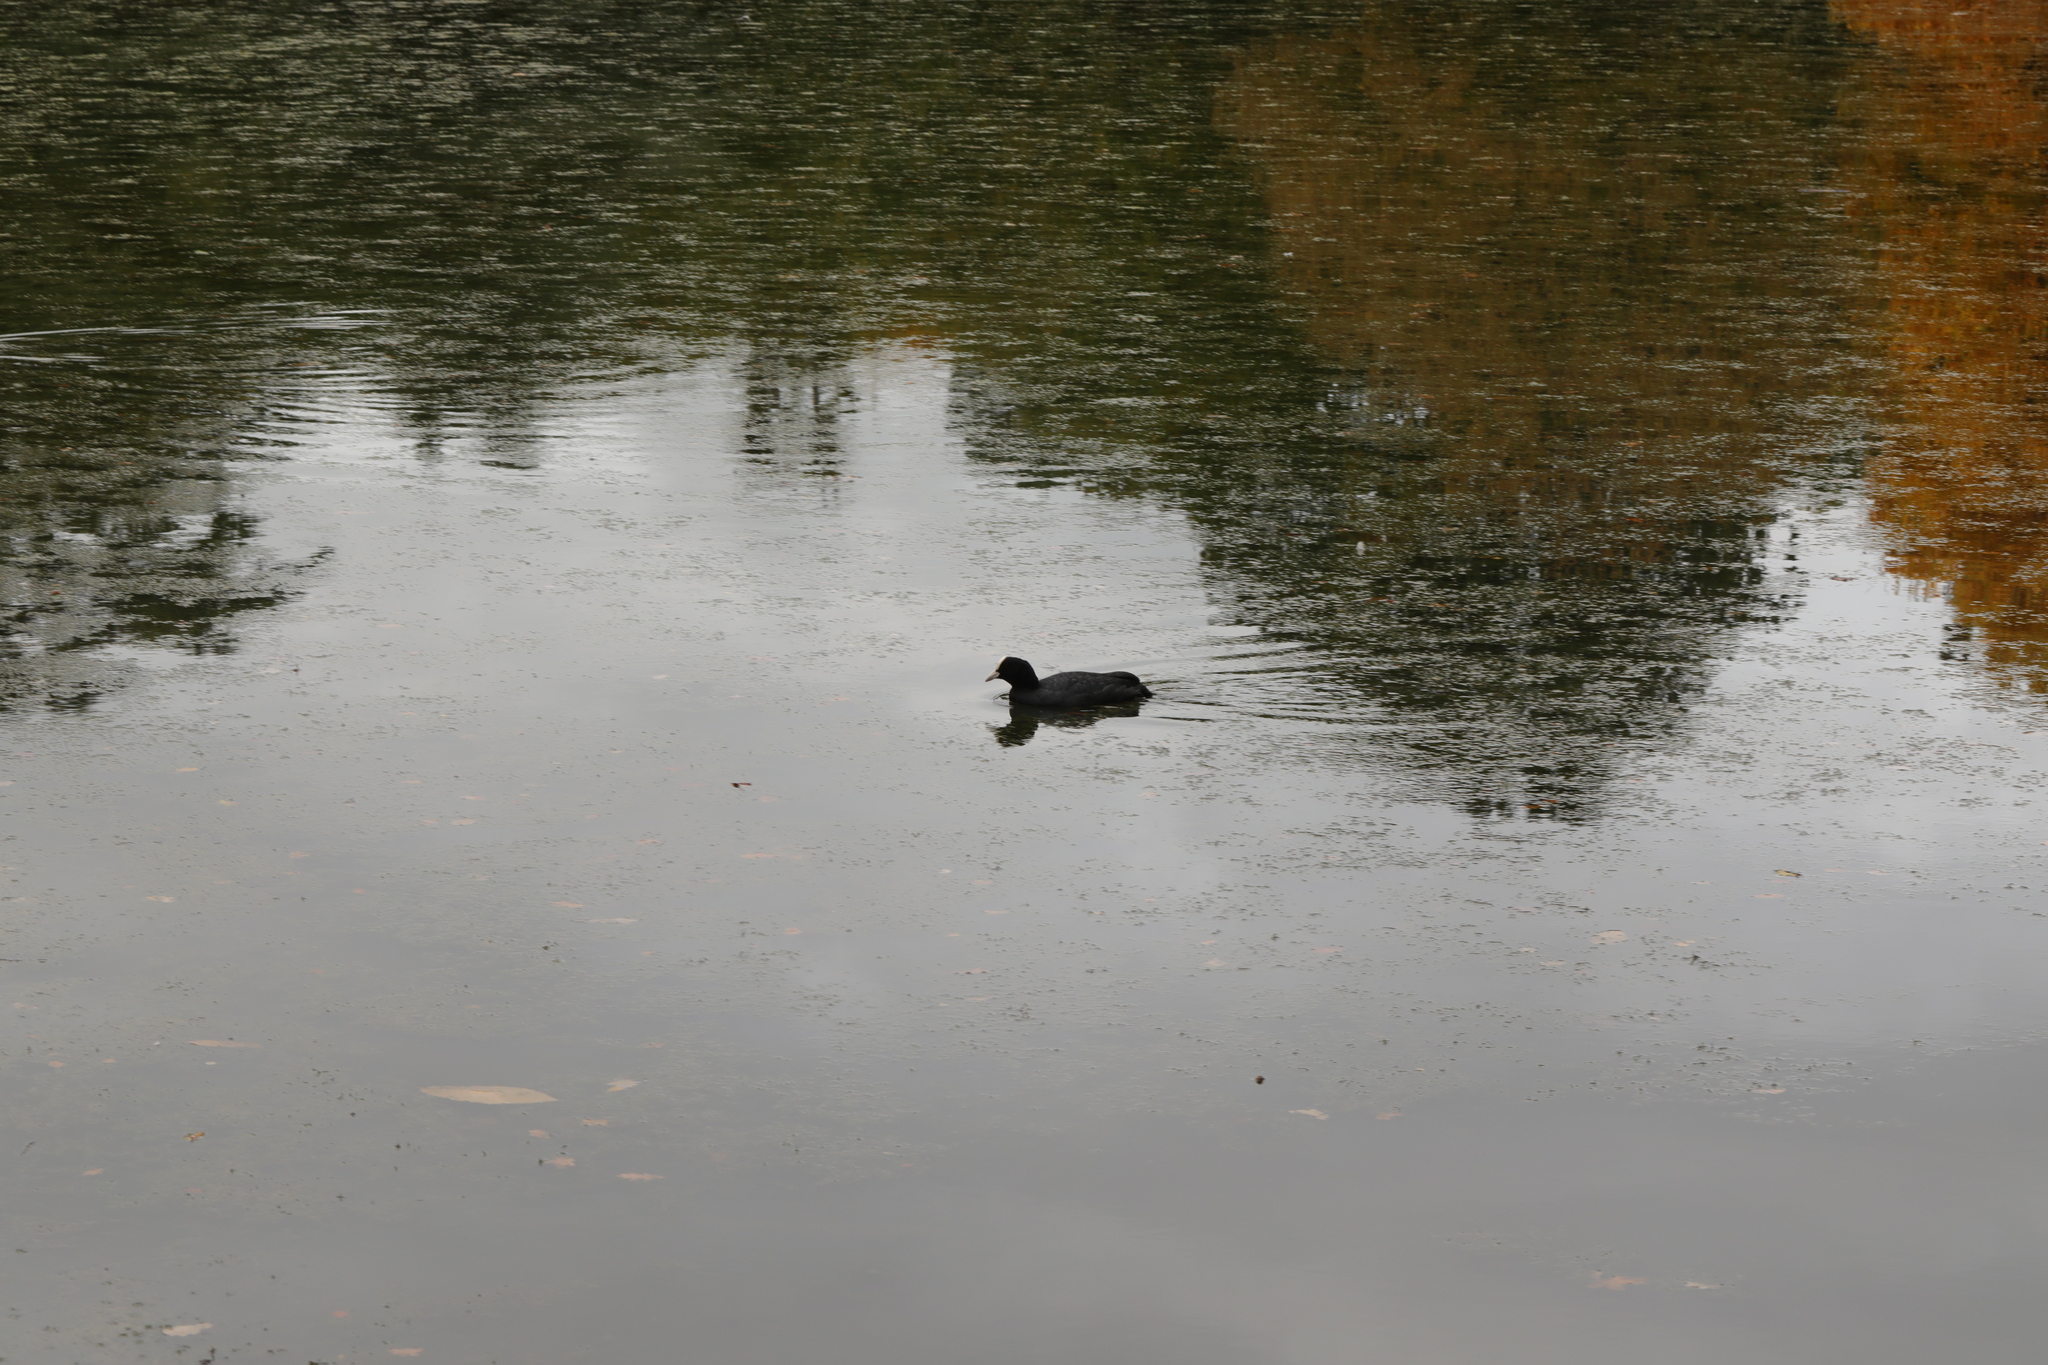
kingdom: Animalia
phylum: Chordata
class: Aves
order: Gruiformes
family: Rallidae
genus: Fulica
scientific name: Fulica atra
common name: Eurasian coot
